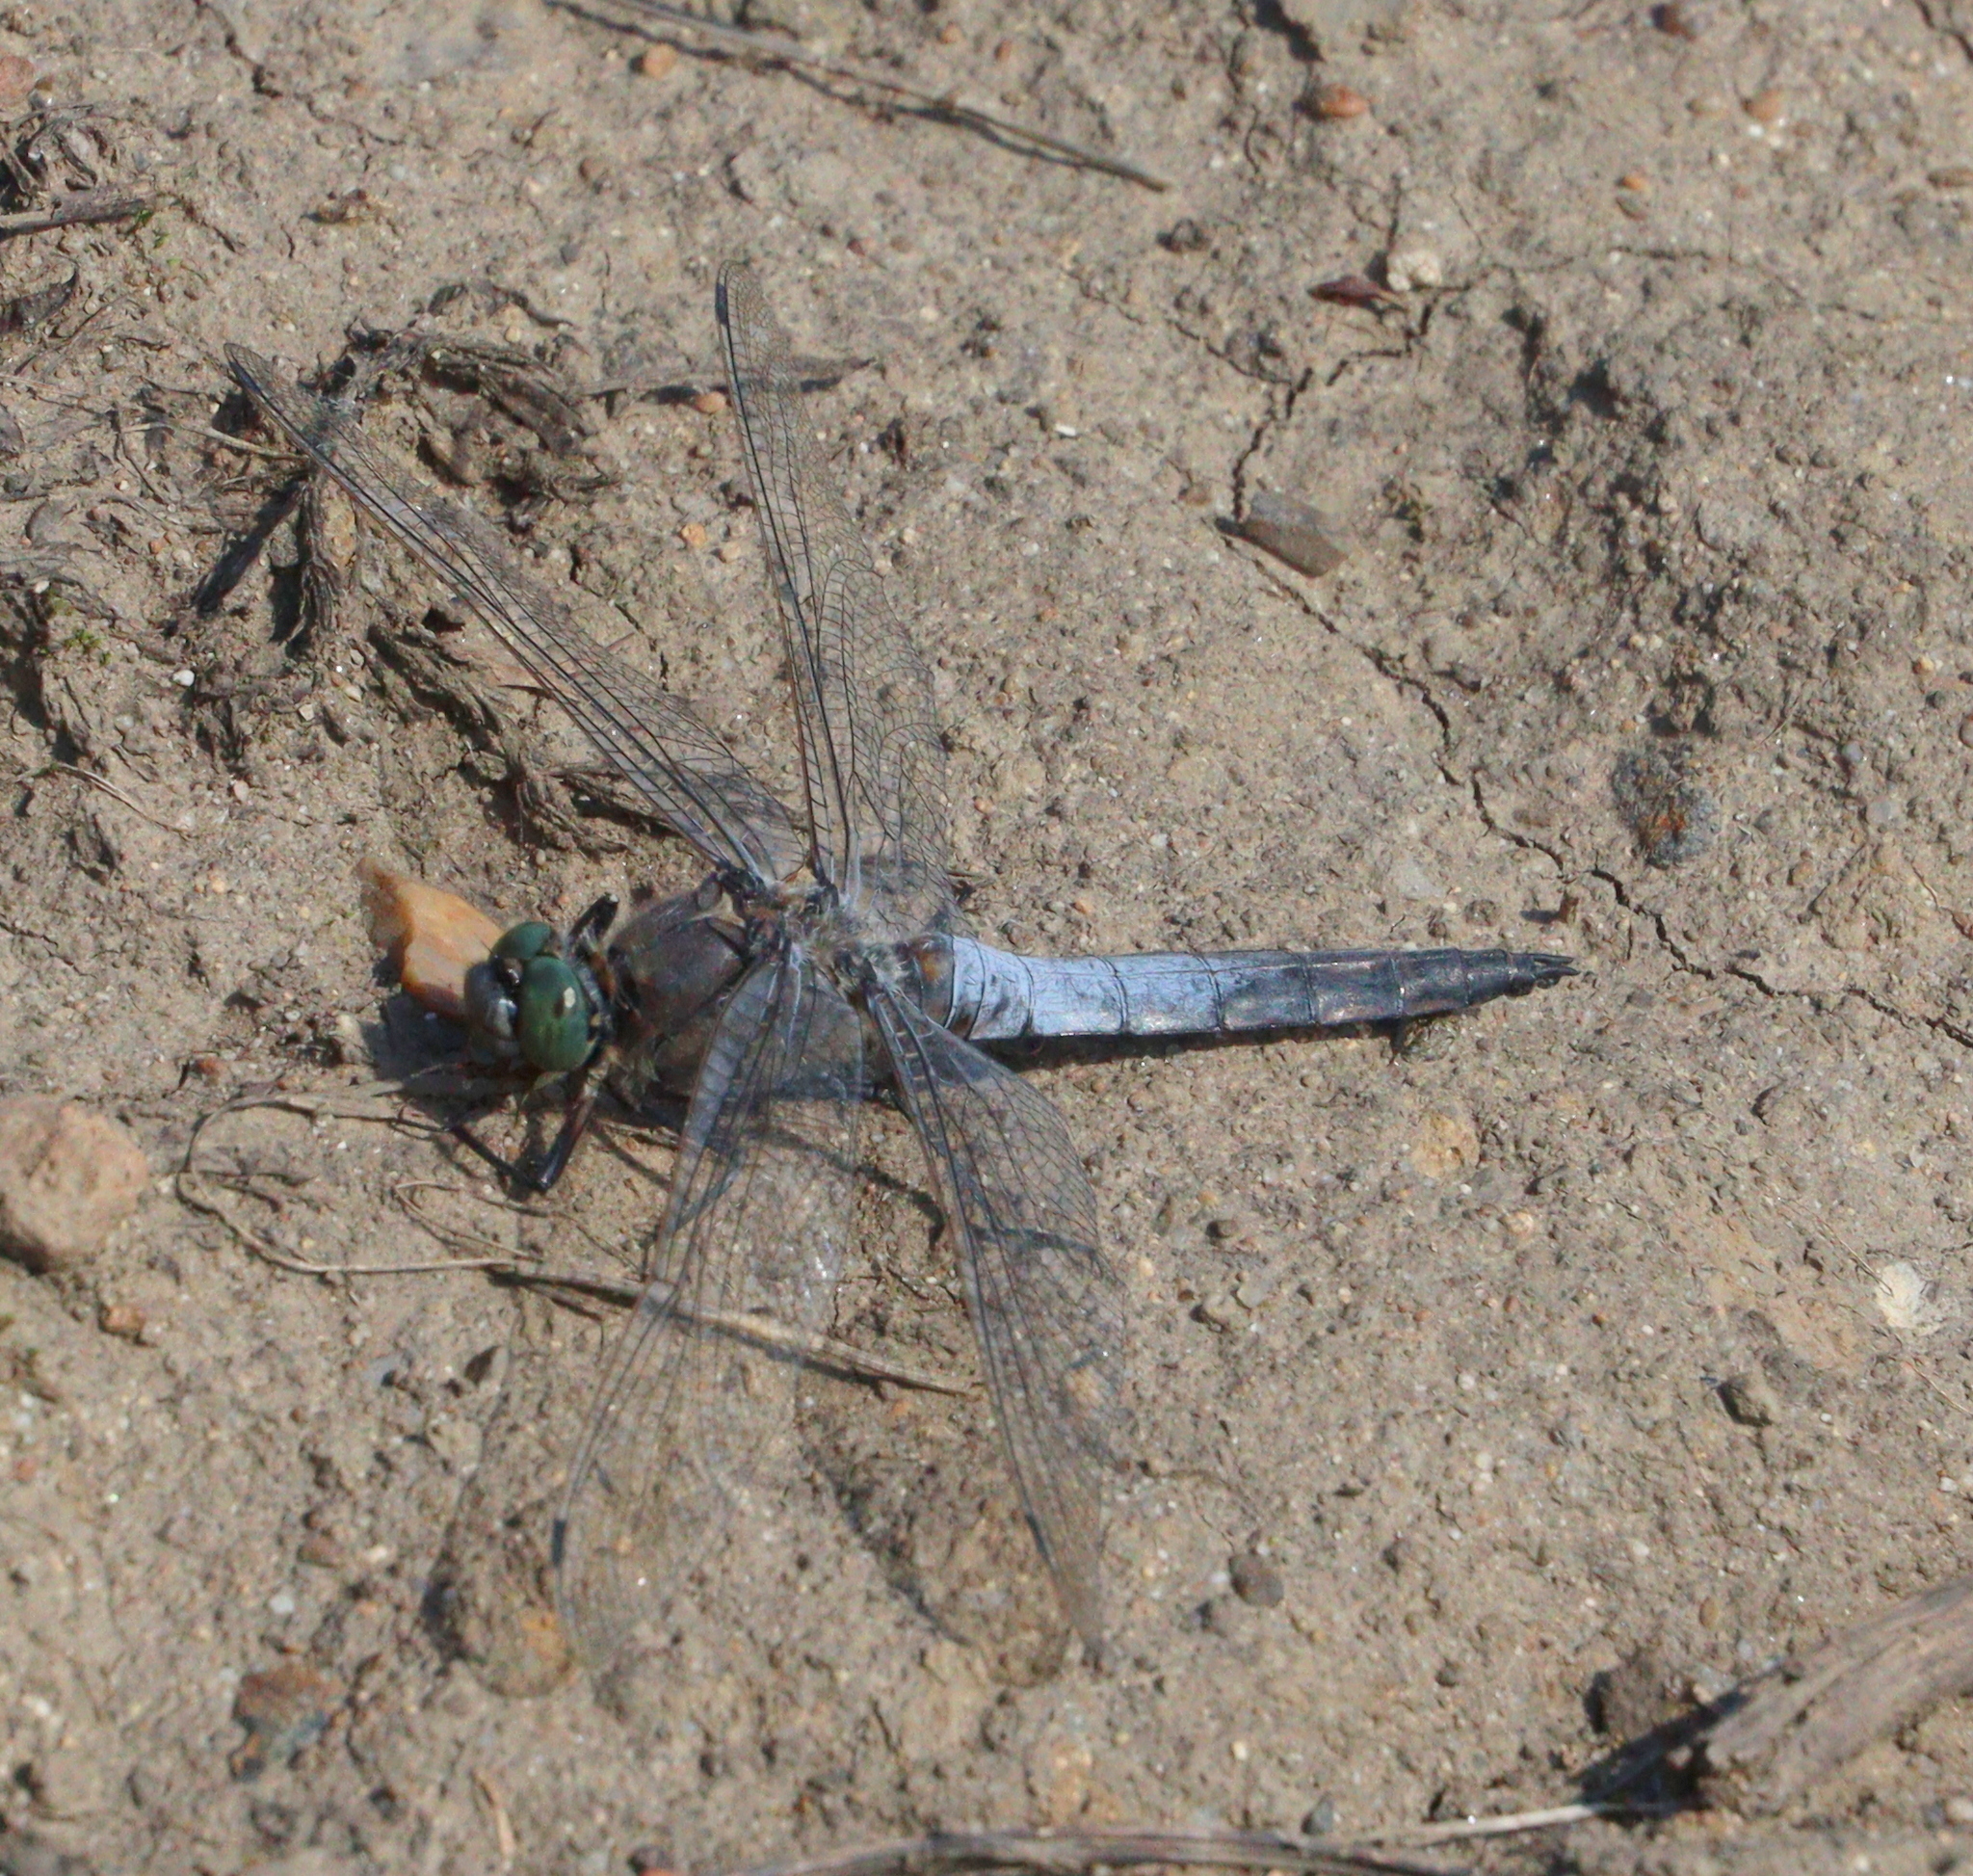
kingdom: Animalia
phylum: Arthropoda
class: Insecta
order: Odonata
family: Libellulidae
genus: Orthetrum
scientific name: Orthetrum cancellatum
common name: Black-tailed skimmer
